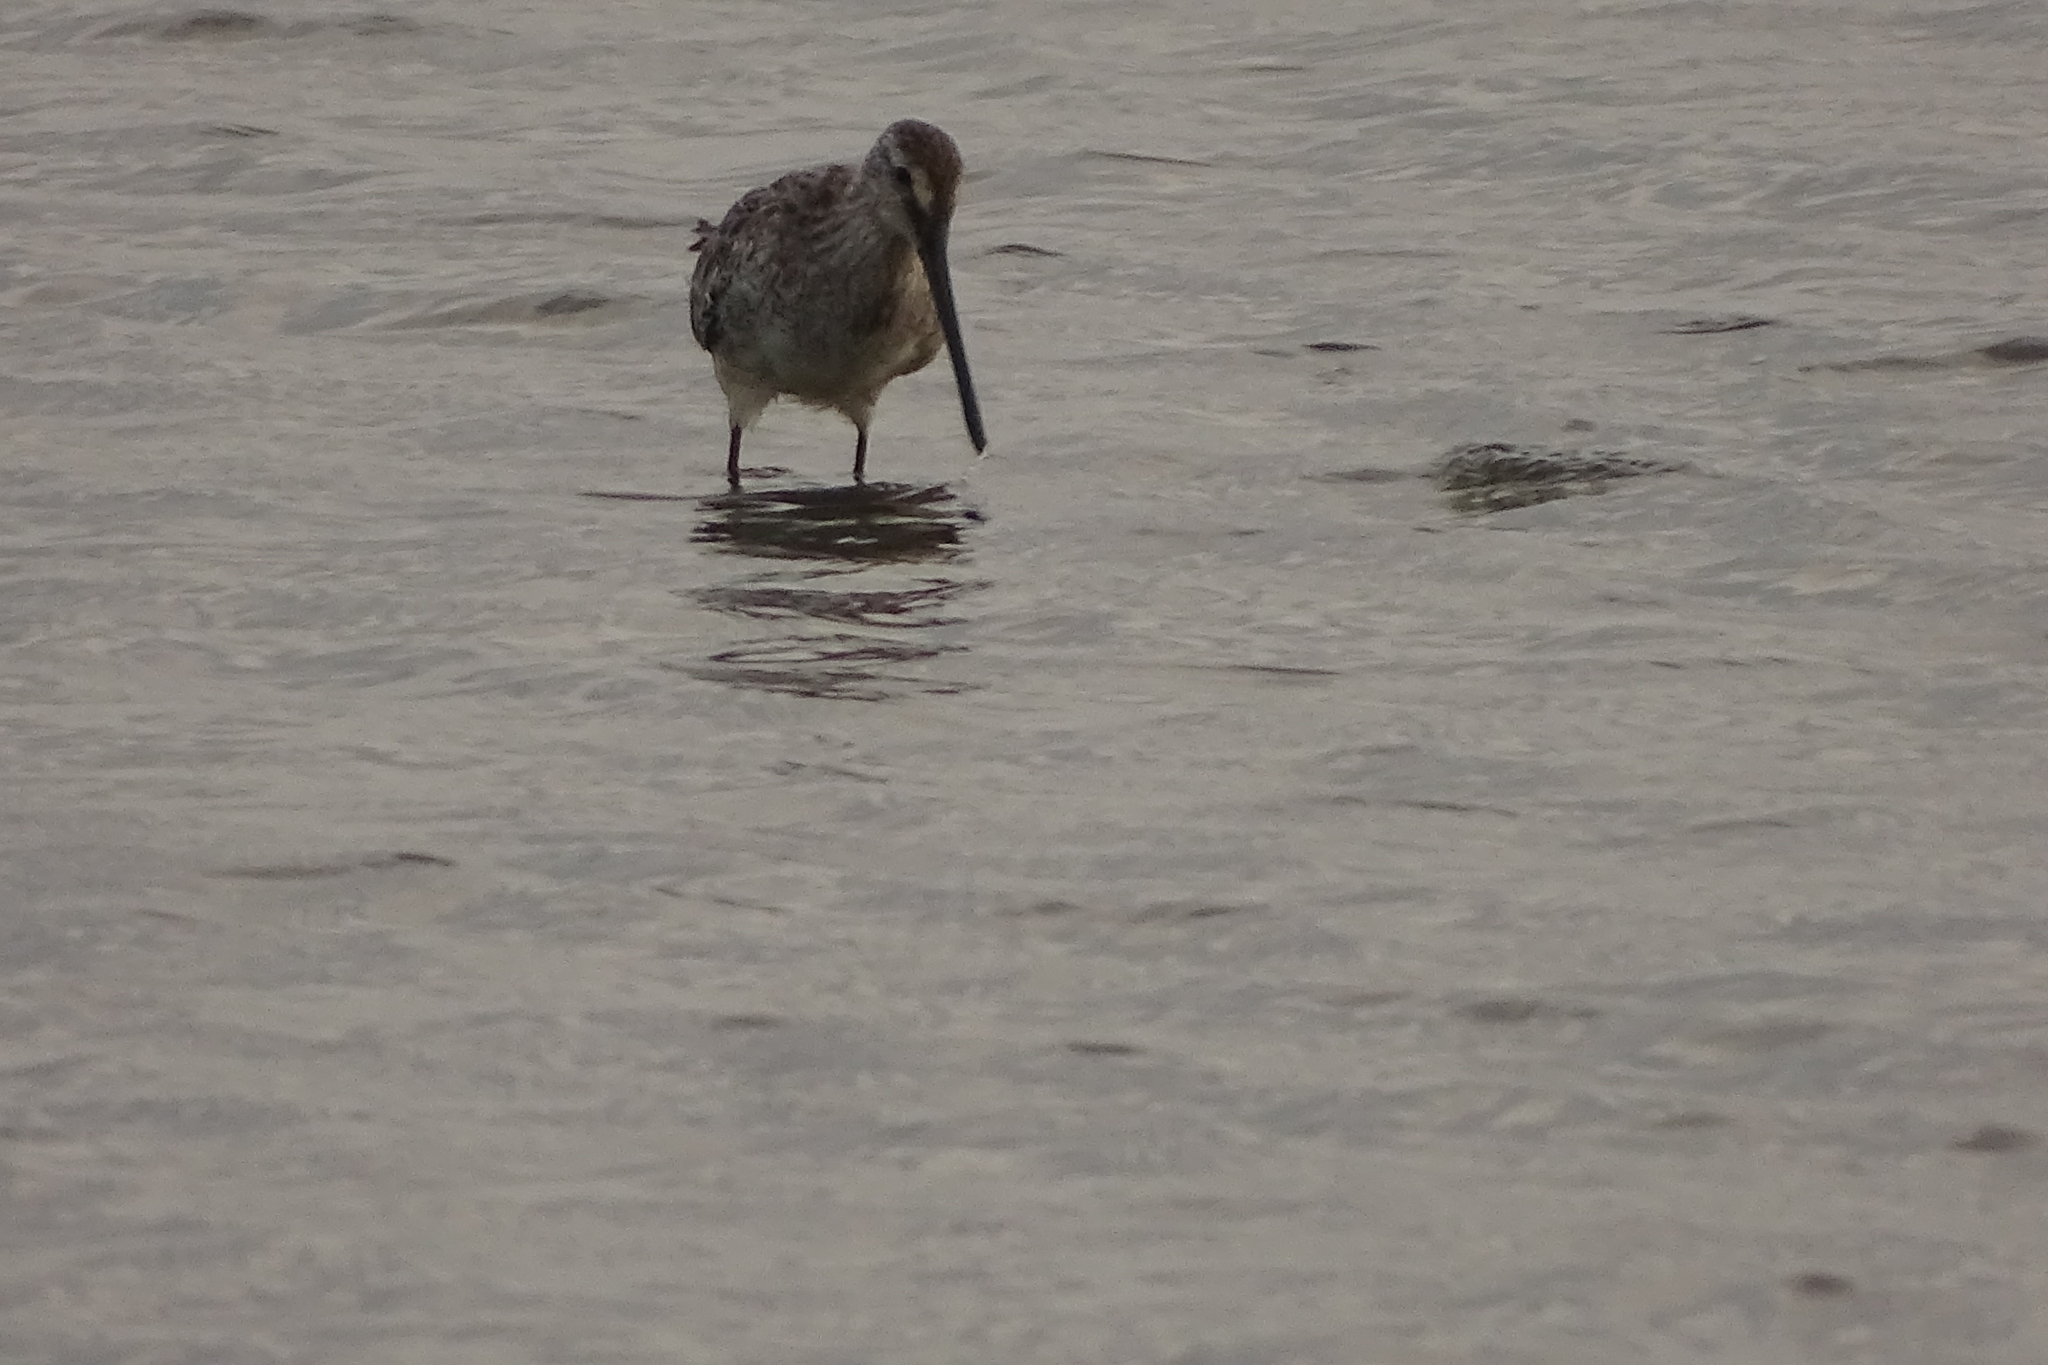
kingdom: Animalia
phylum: Chordata
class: Aves
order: Charadriiformes
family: Scolopacidae
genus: Limnodromus
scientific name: Limnodromus semipalmatus
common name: Asian dowitcher
